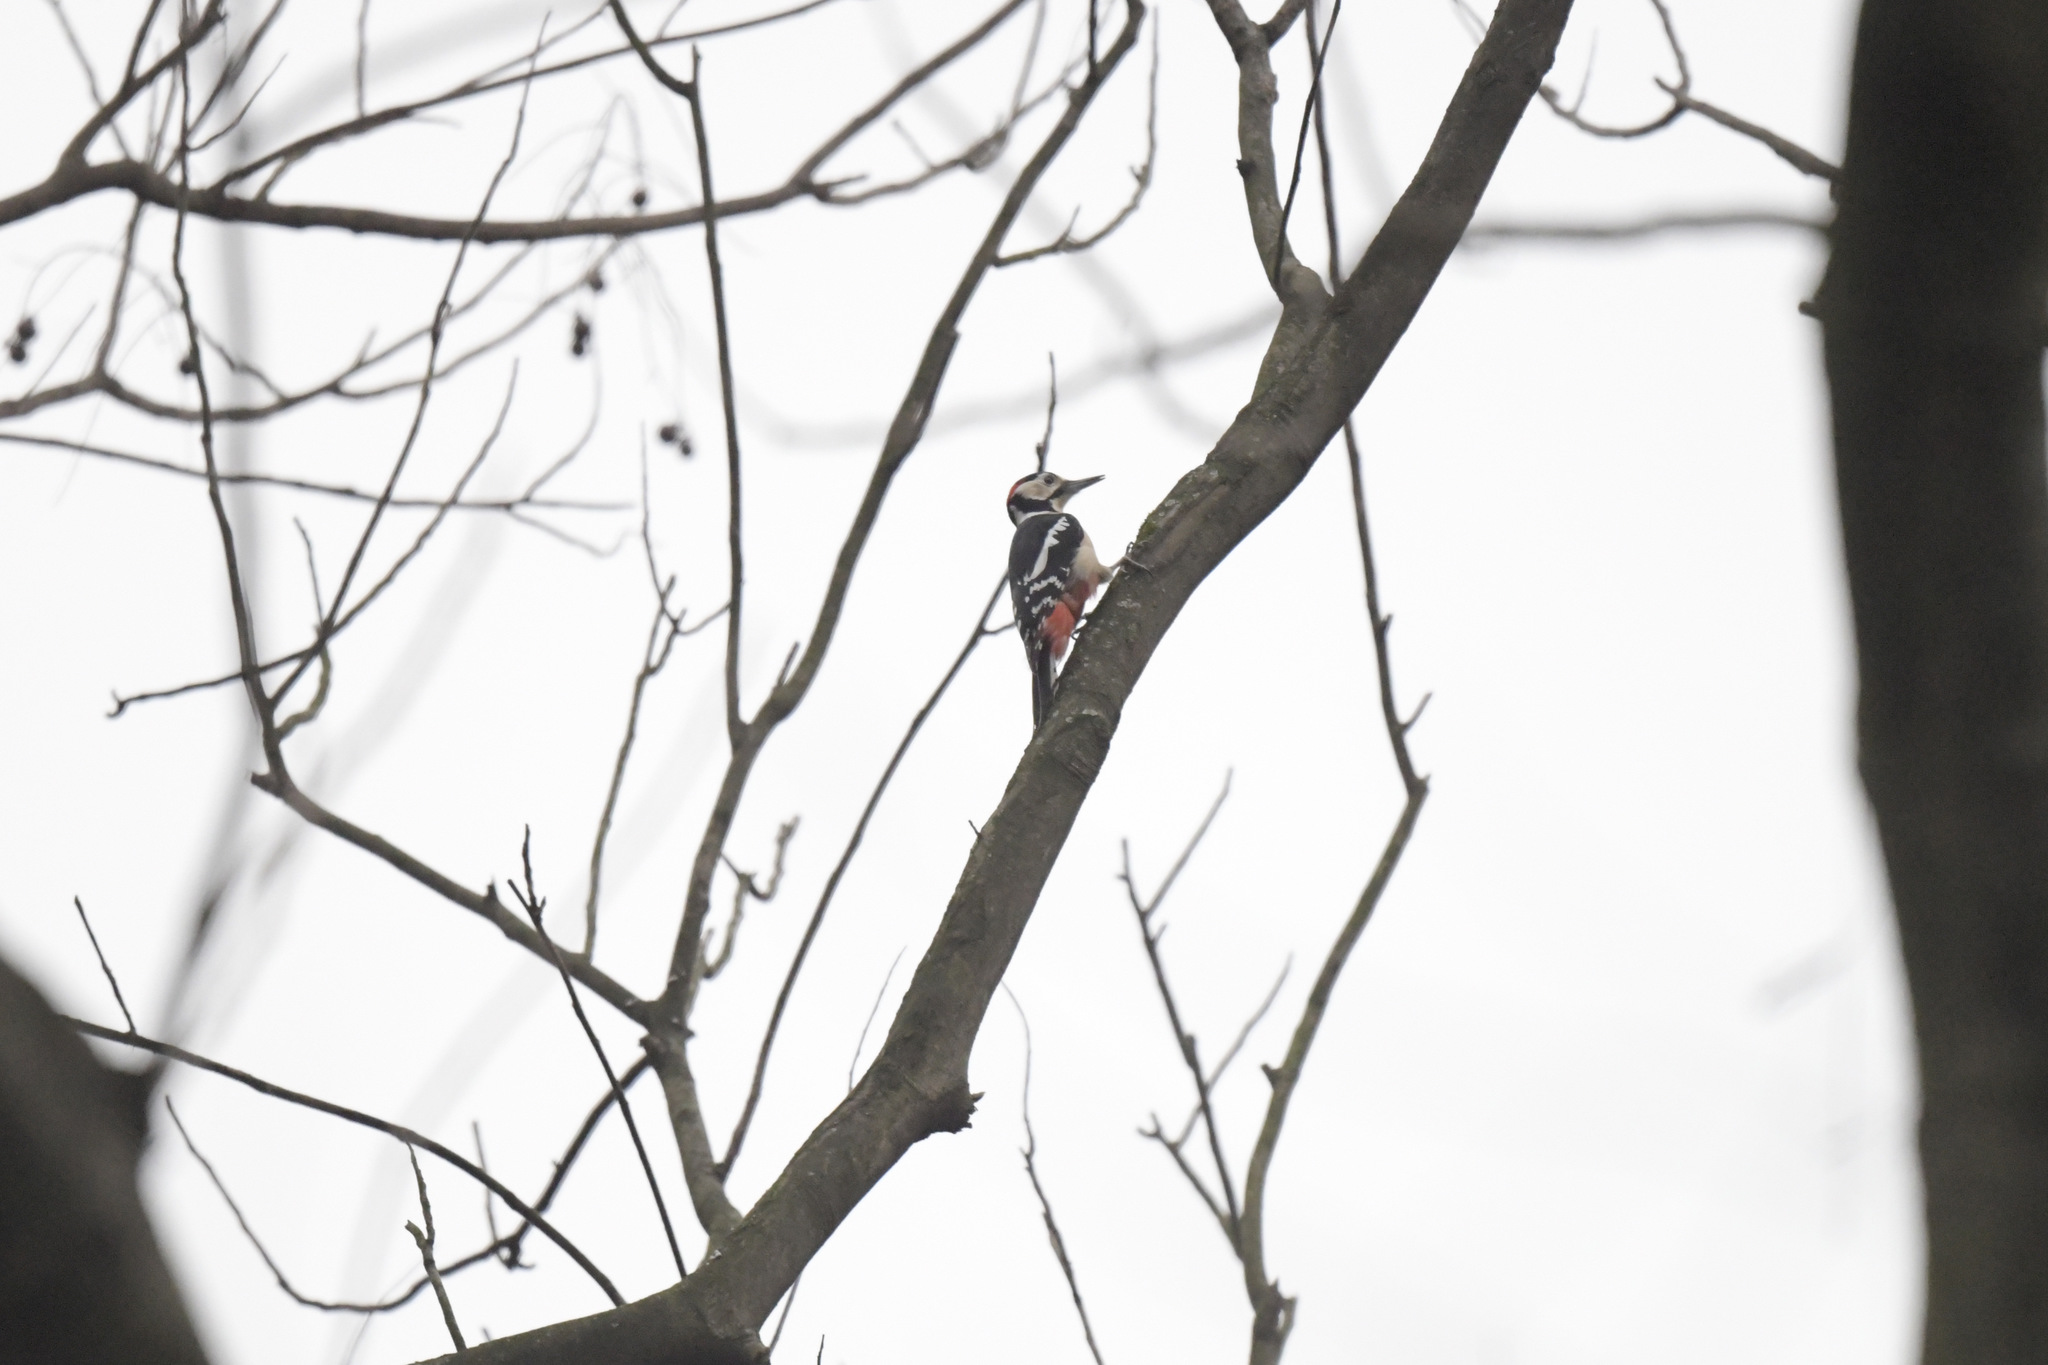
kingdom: Animalia
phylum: Chordata
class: Aves
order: Piciformes
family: Picidae
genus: Dendrocopos
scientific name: Dendrocopos major
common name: Great spotted woodpecker
